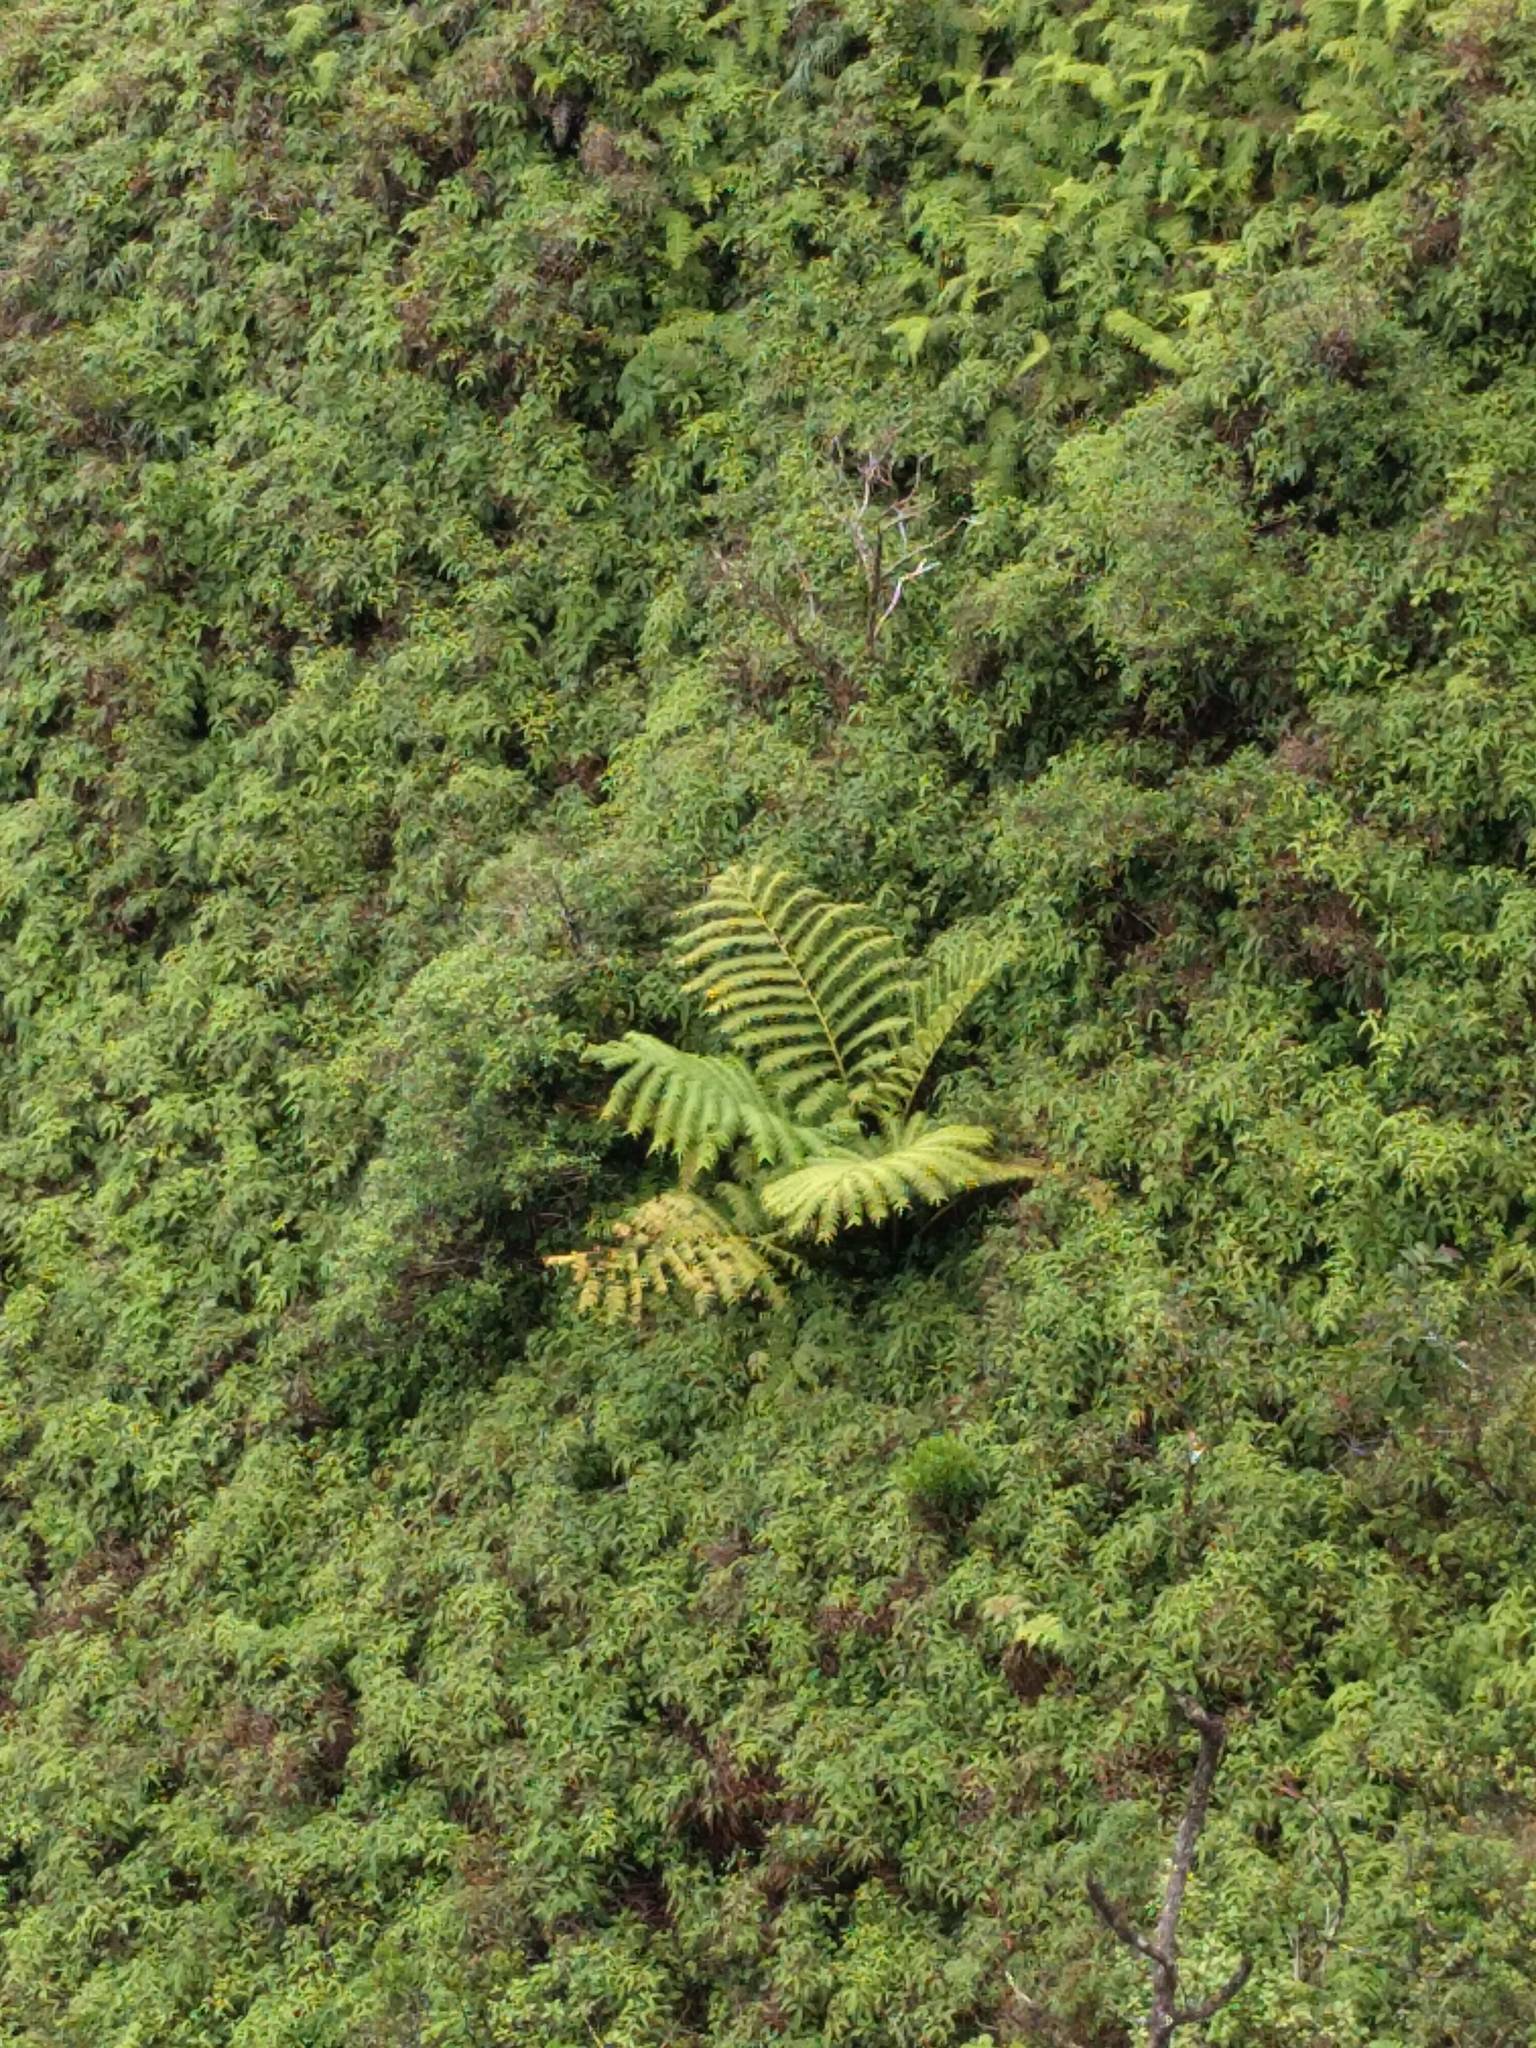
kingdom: Plantae
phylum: Tracheophyta
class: Polypodiopsida
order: Marattiales
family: Marattiaceae
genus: Angiopteris
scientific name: Angiopteris evecta
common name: Mule's-foot fern
